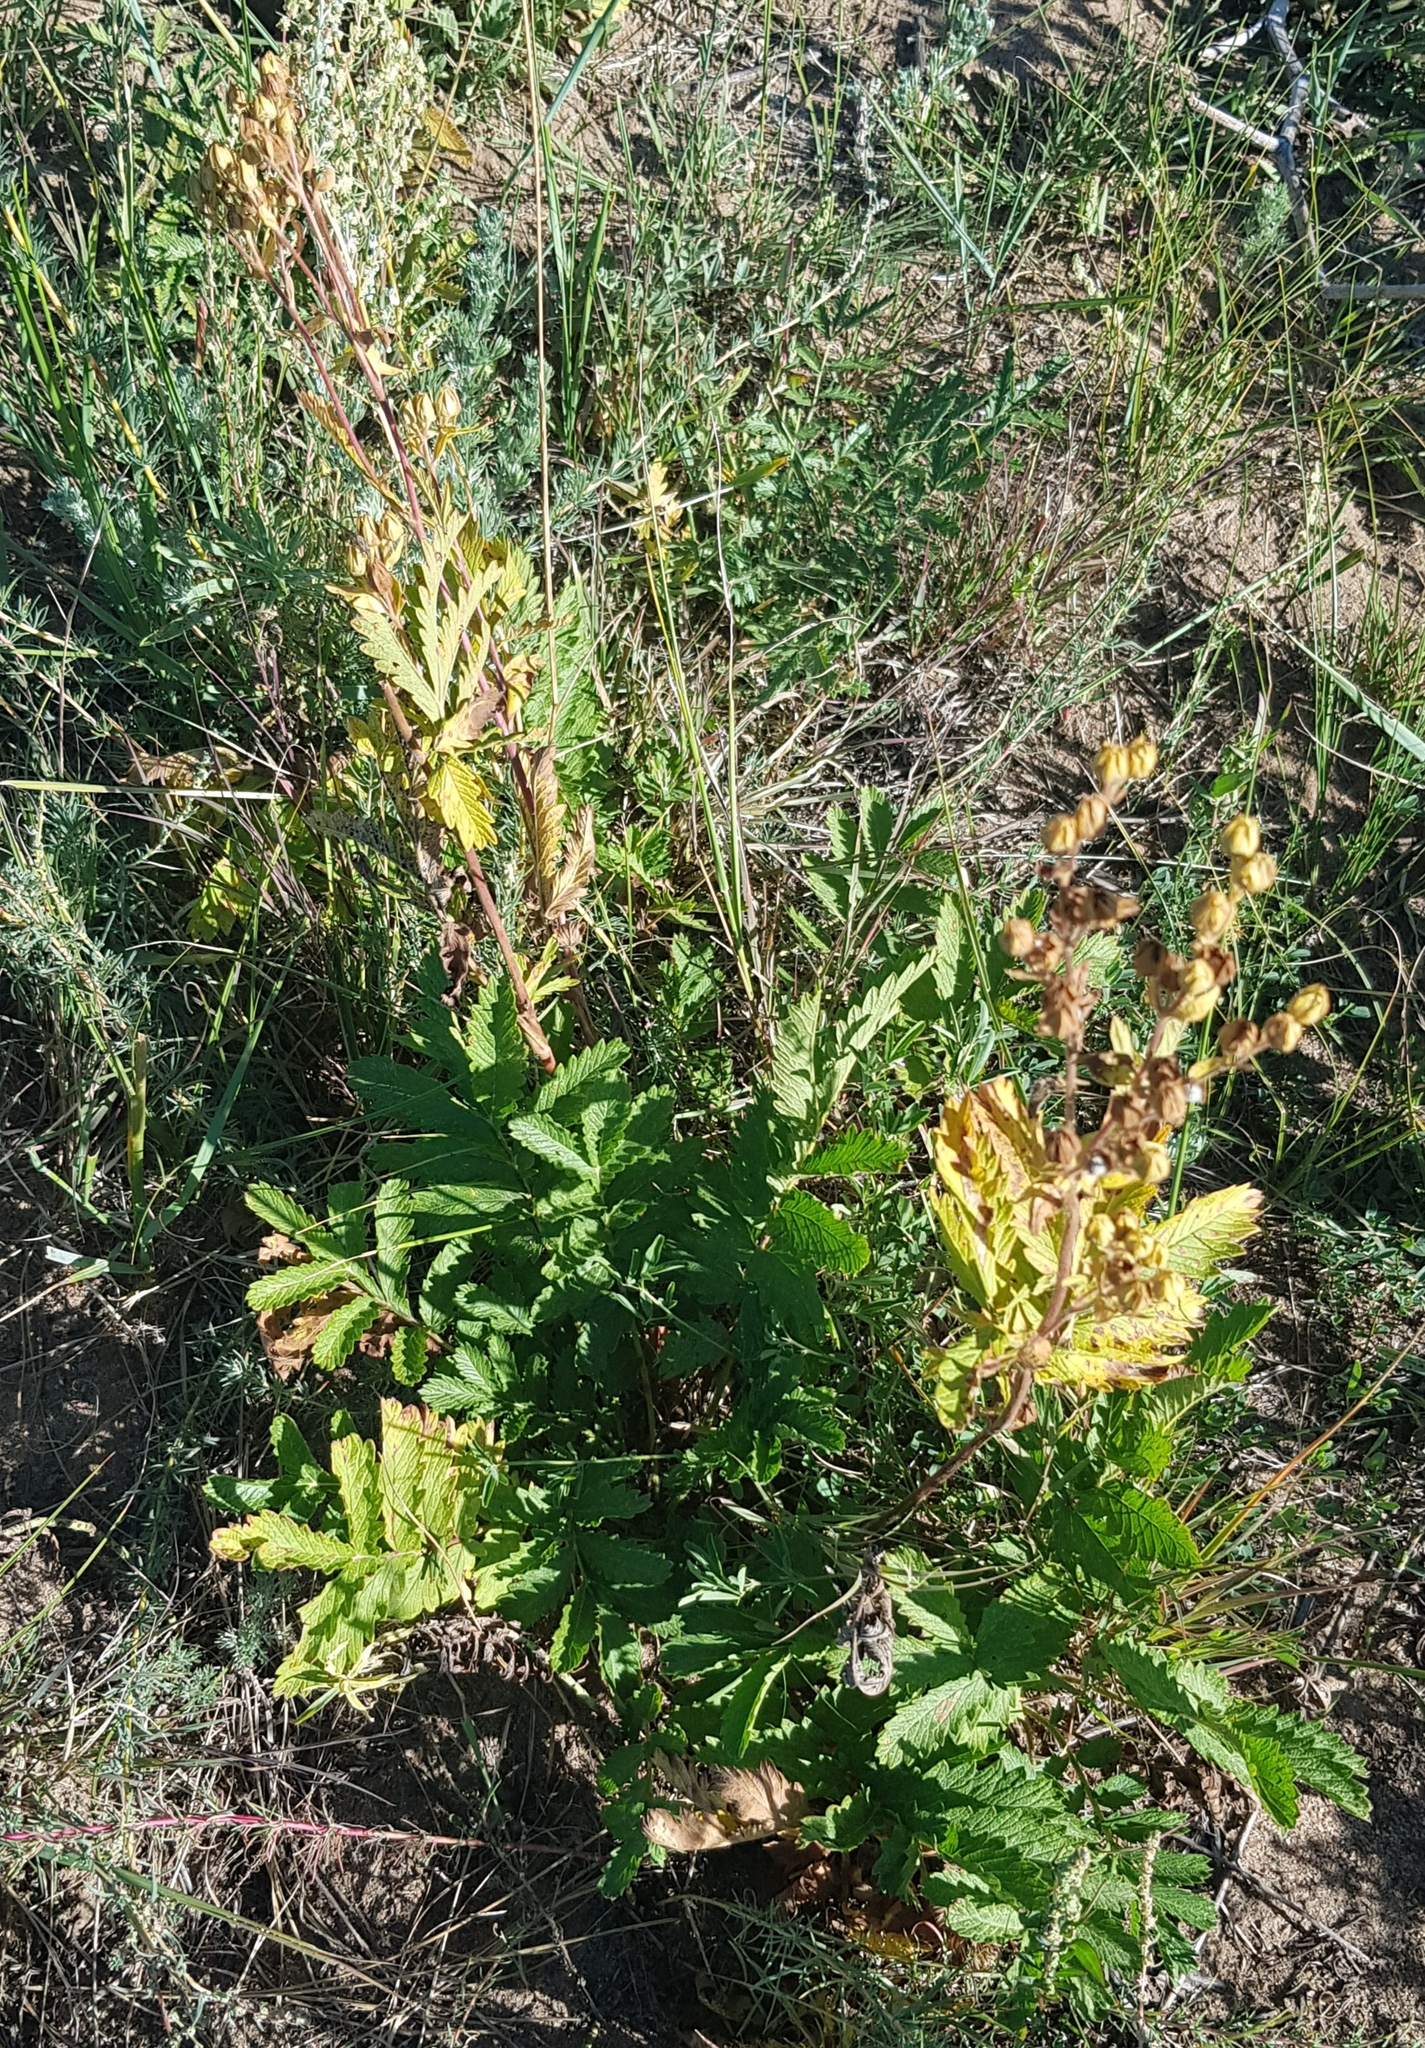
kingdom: Plantae
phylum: Tracheophyta
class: Magnoliopsida
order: Rosales
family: Rosaceae
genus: Potentilla
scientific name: Potentilla longifolia
